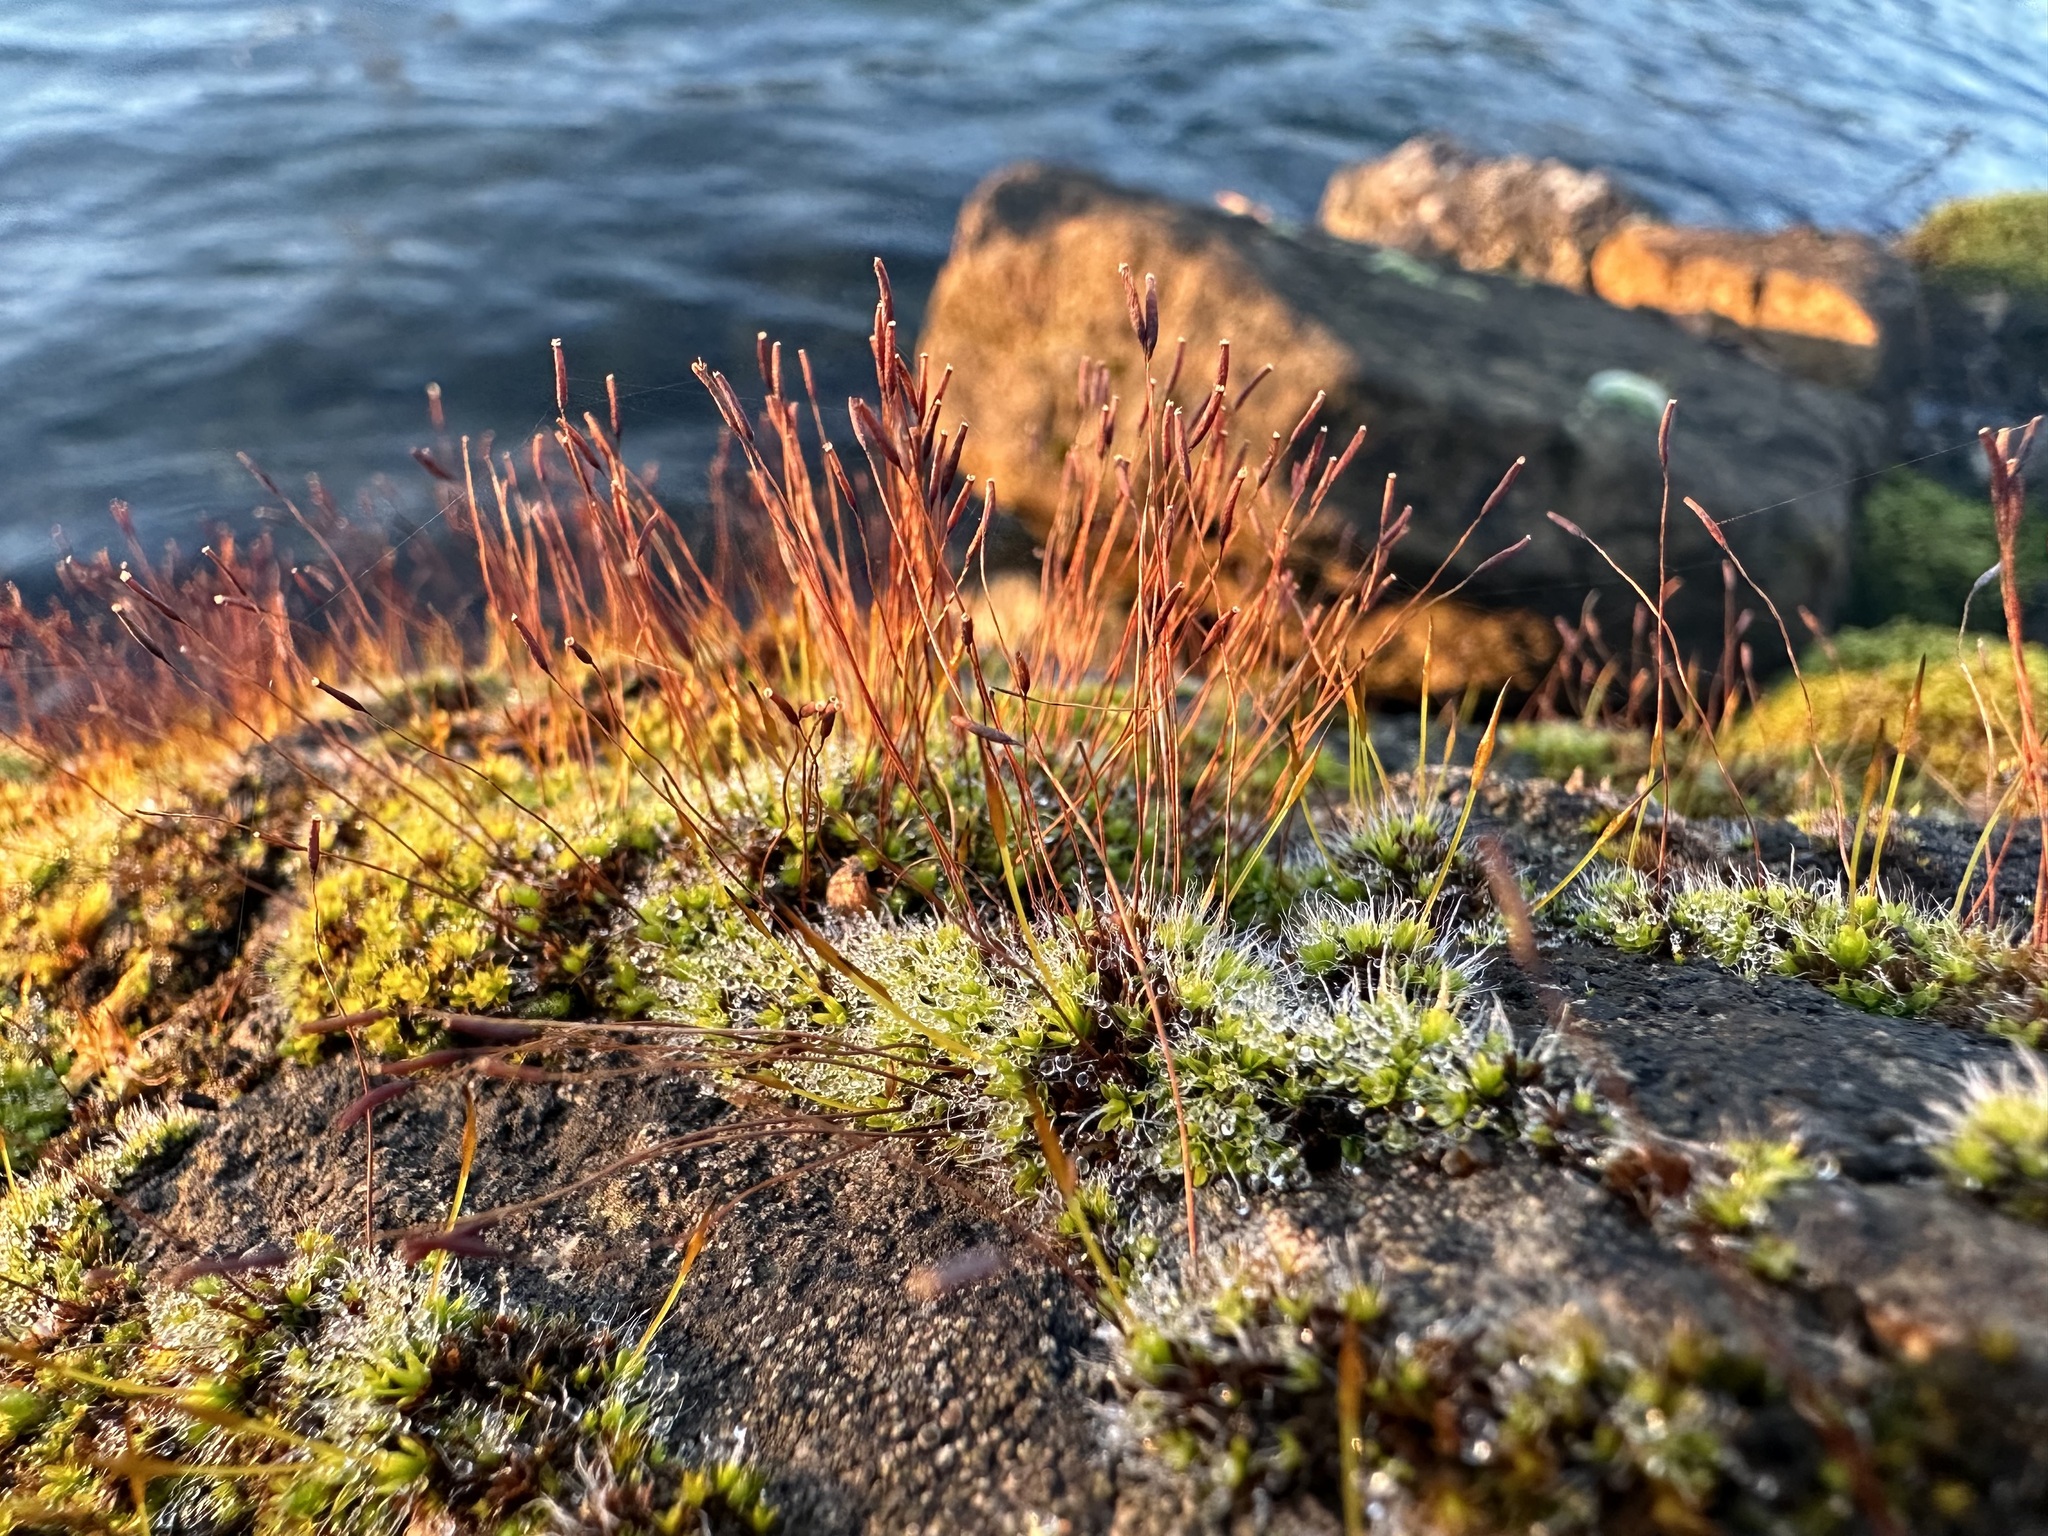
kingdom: Plantae
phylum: Bryophyta
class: Bryopsida
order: Pottiales
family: Pottiaceae
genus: Tortula
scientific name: Tortula muralis
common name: Wall screw-moss
